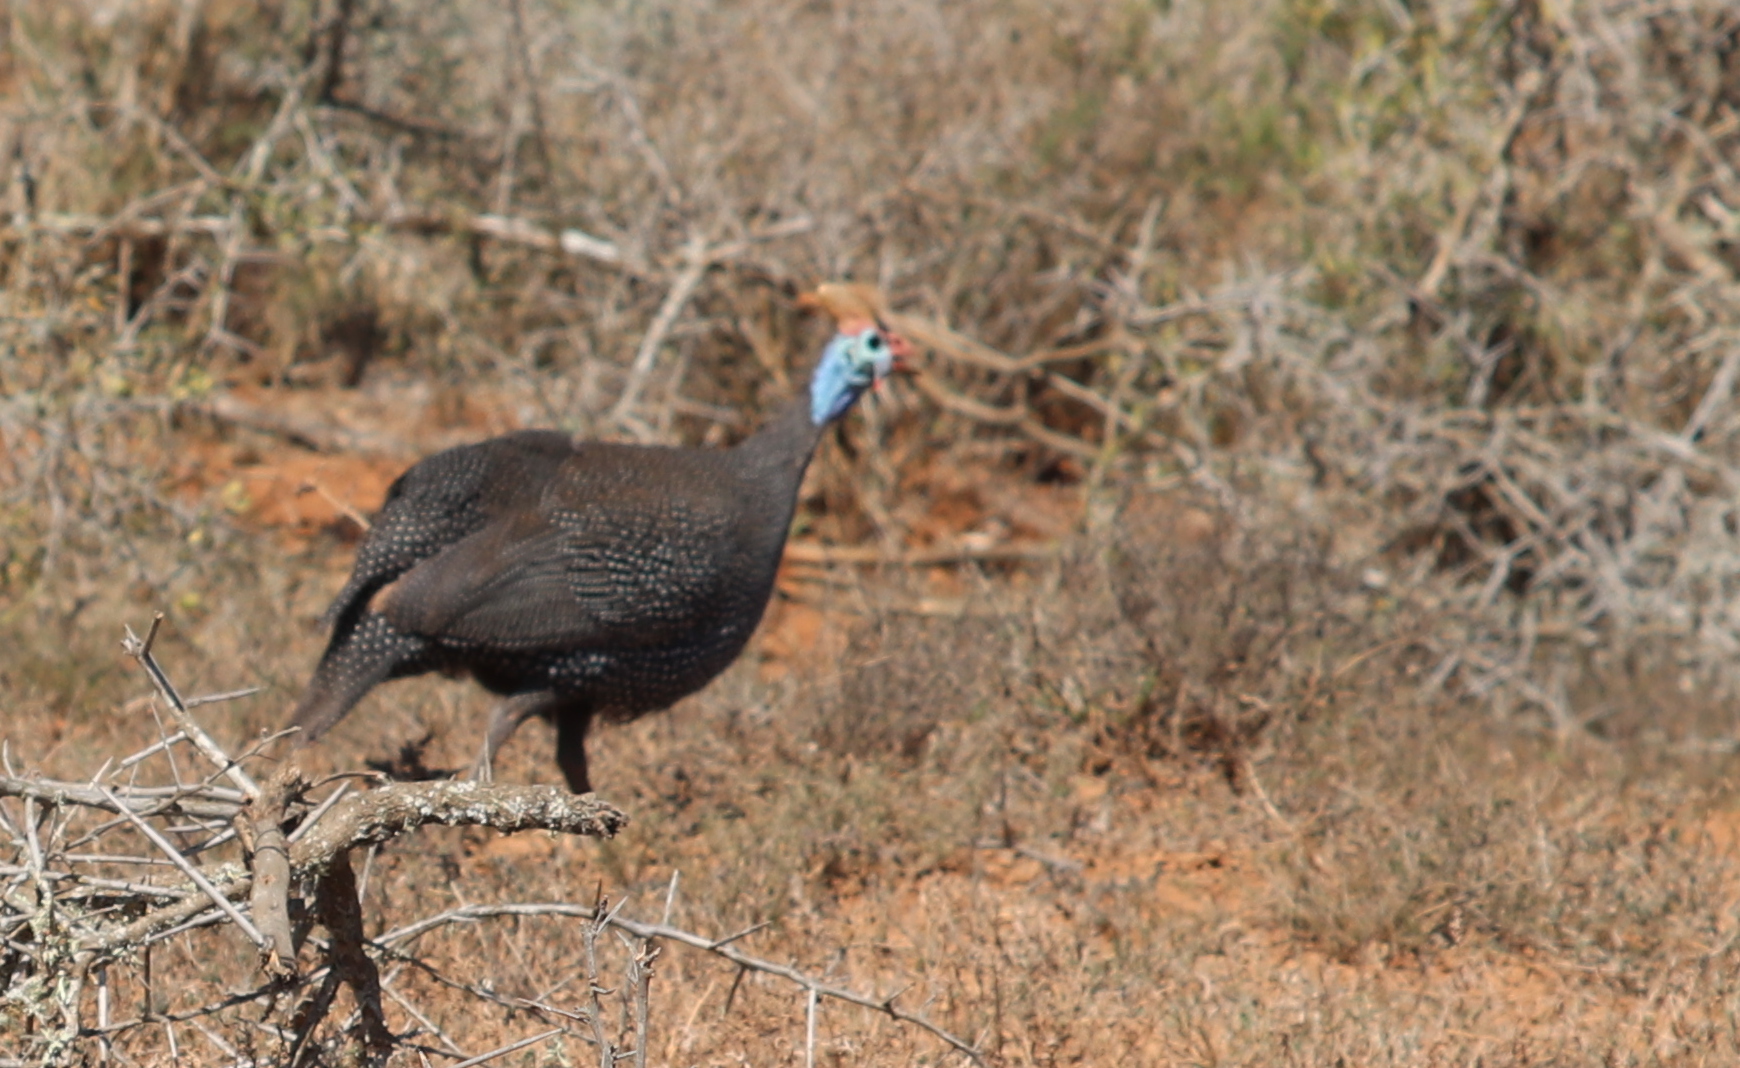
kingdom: Animalia
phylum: Chordata
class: Aves
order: Galliformes
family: Numididae
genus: Numida
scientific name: Numida meleagris
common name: Helmeted guineafowl
